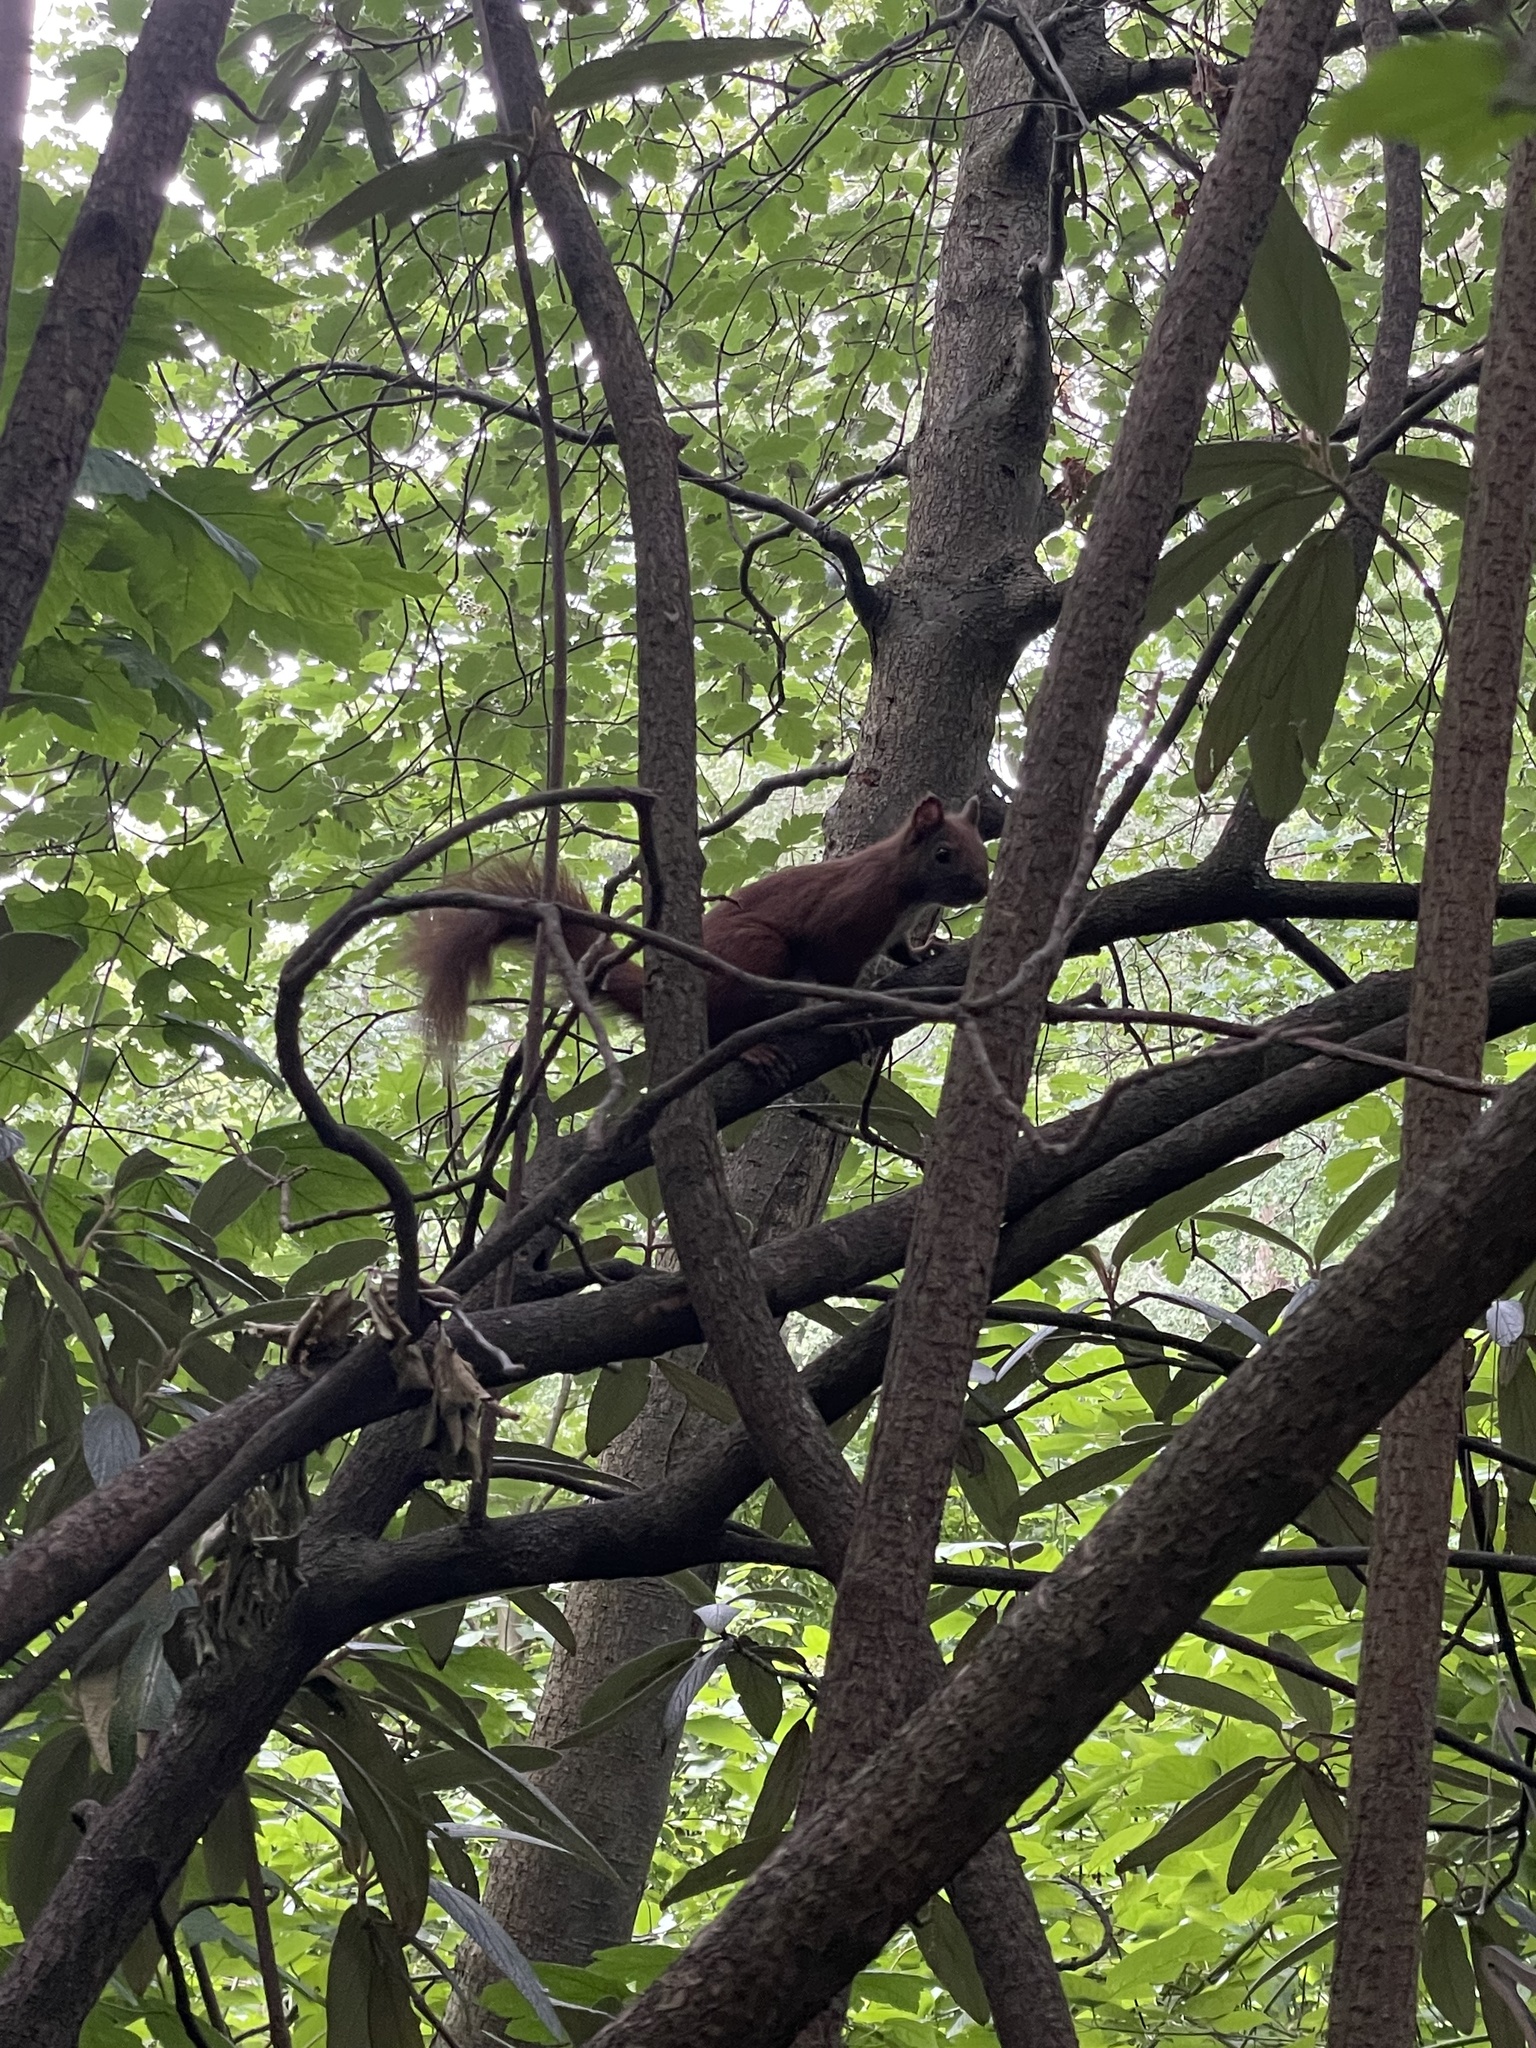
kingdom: Animalia
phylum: Chordata
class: Mammalia
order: Rodentia
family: Sciuridae
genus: Sciurus
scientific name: Sciurus vulgaris
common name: Eurasian red squirrel
